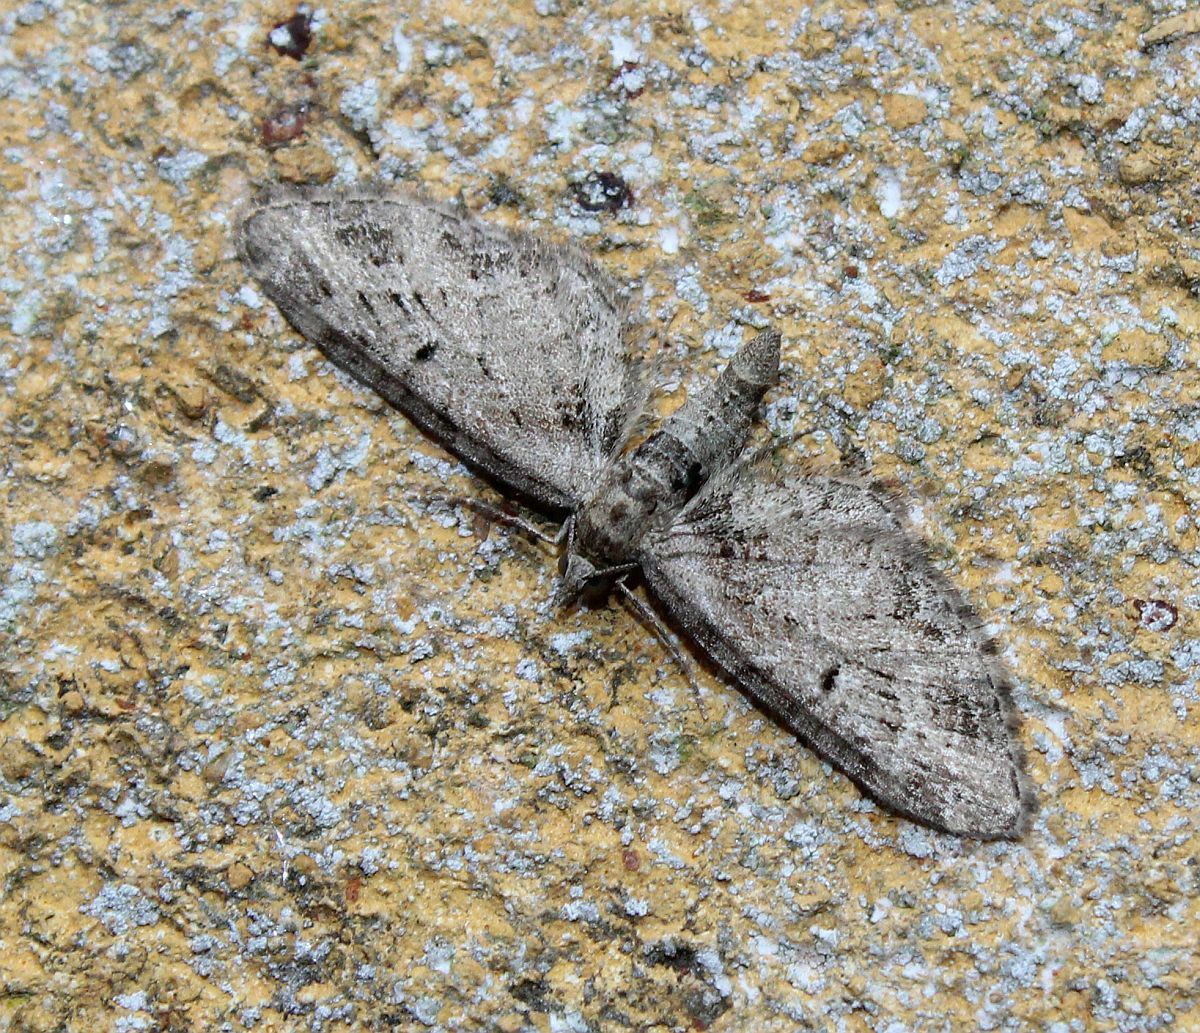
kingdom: Animalia
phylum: Arthropoda
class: Insecta
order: Lepidoptera
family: Geometridae
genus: Eupithecia
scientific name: Eupithecia exiguata
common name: Mottled pug
